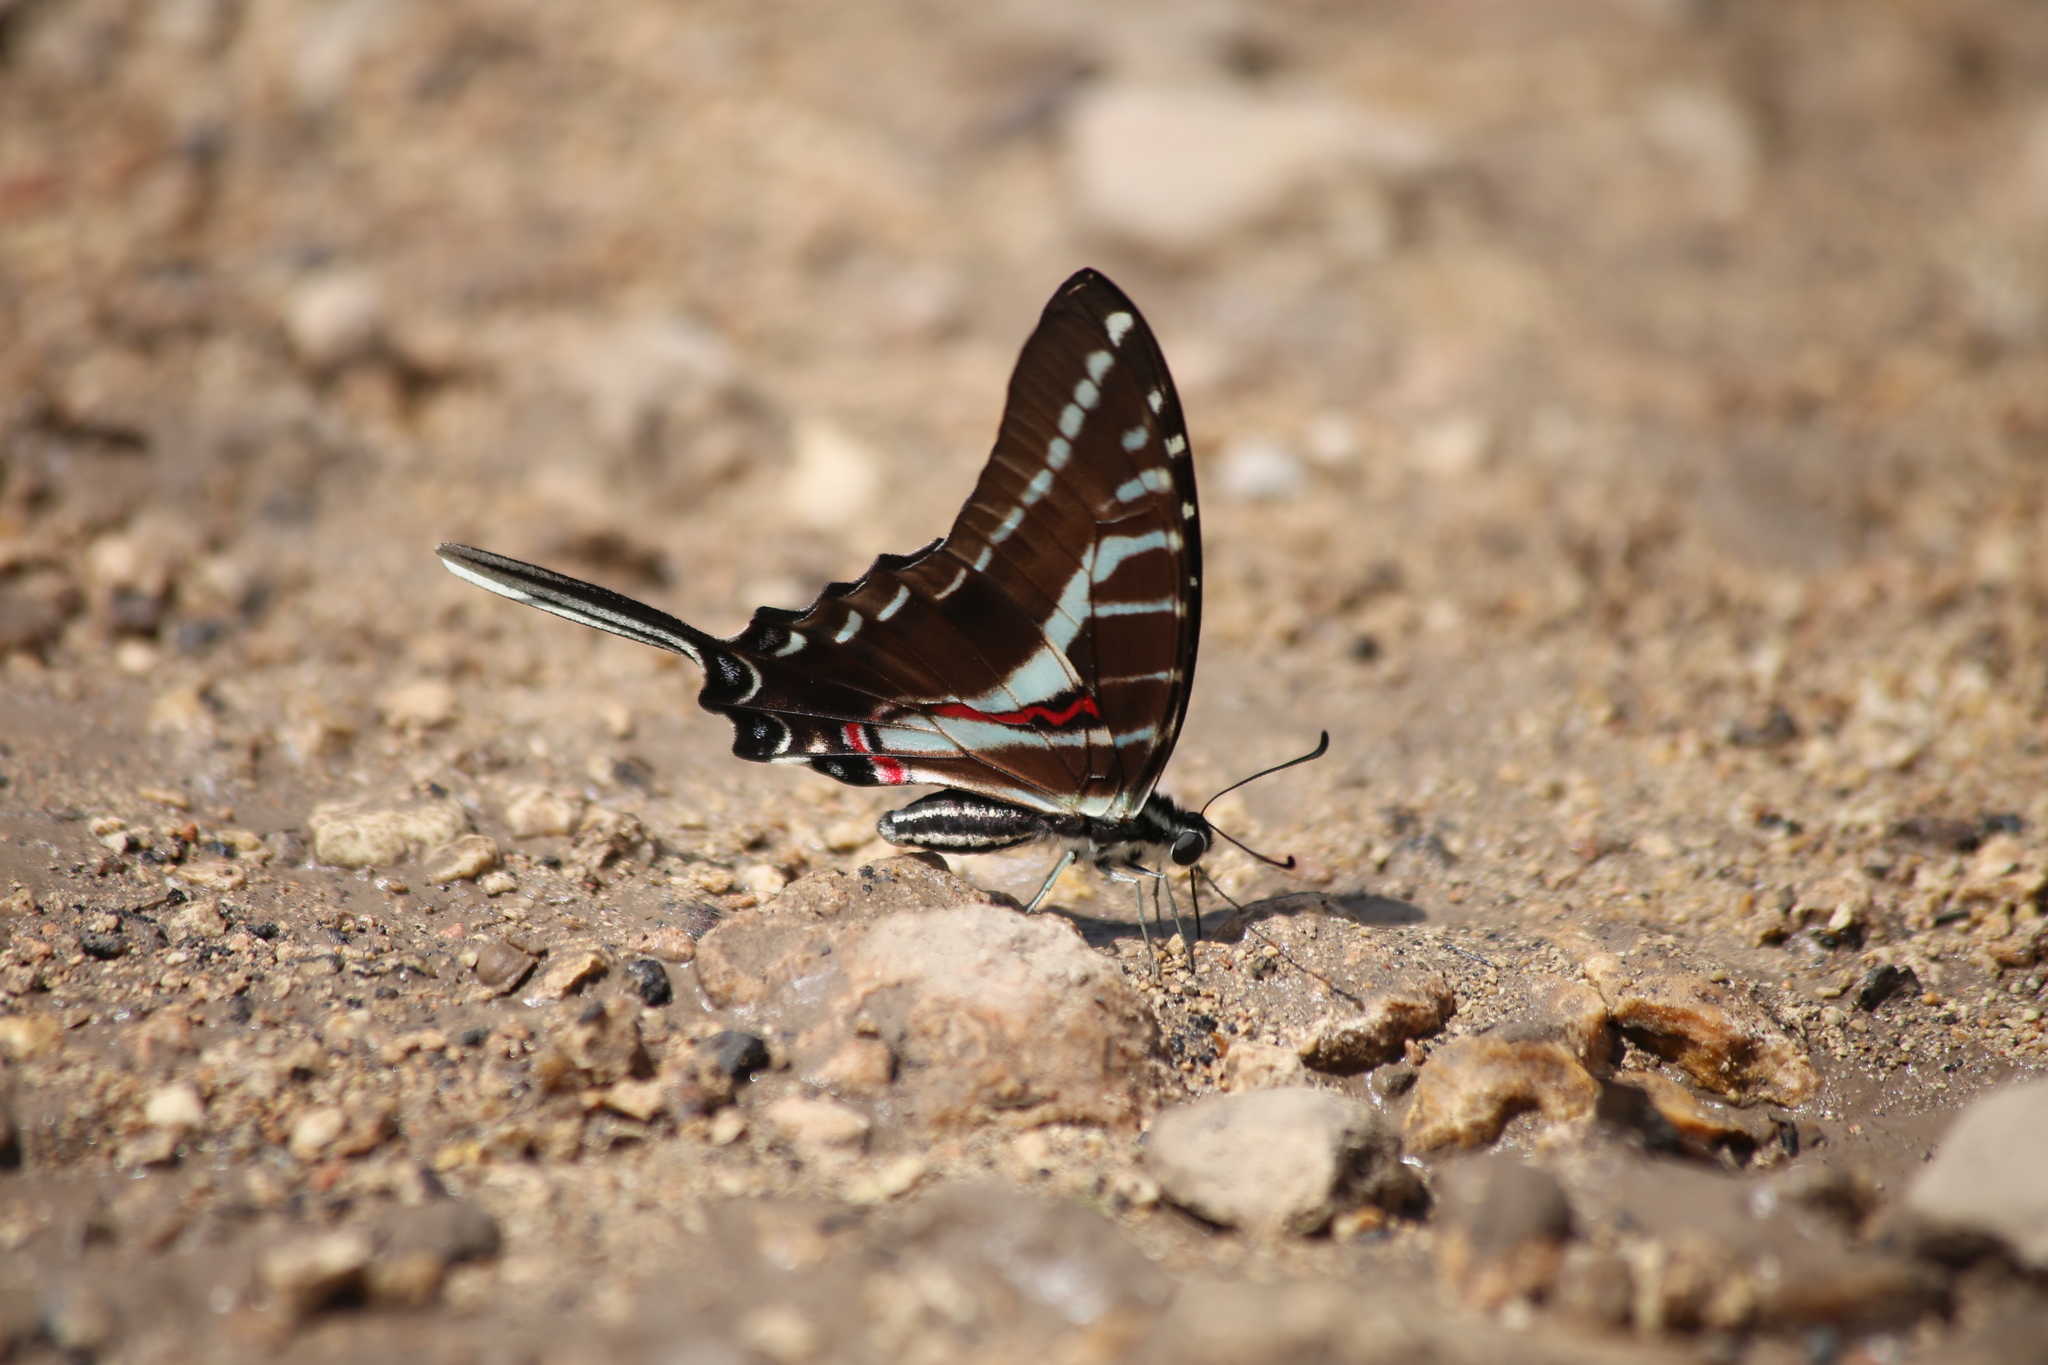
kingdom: Animalia
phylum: Arthropoda
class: Insecta
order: Lepidoptera
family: Papilionidae
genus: Protographium
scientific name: Protographium philolaus
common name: Dark zebra swallowtail
